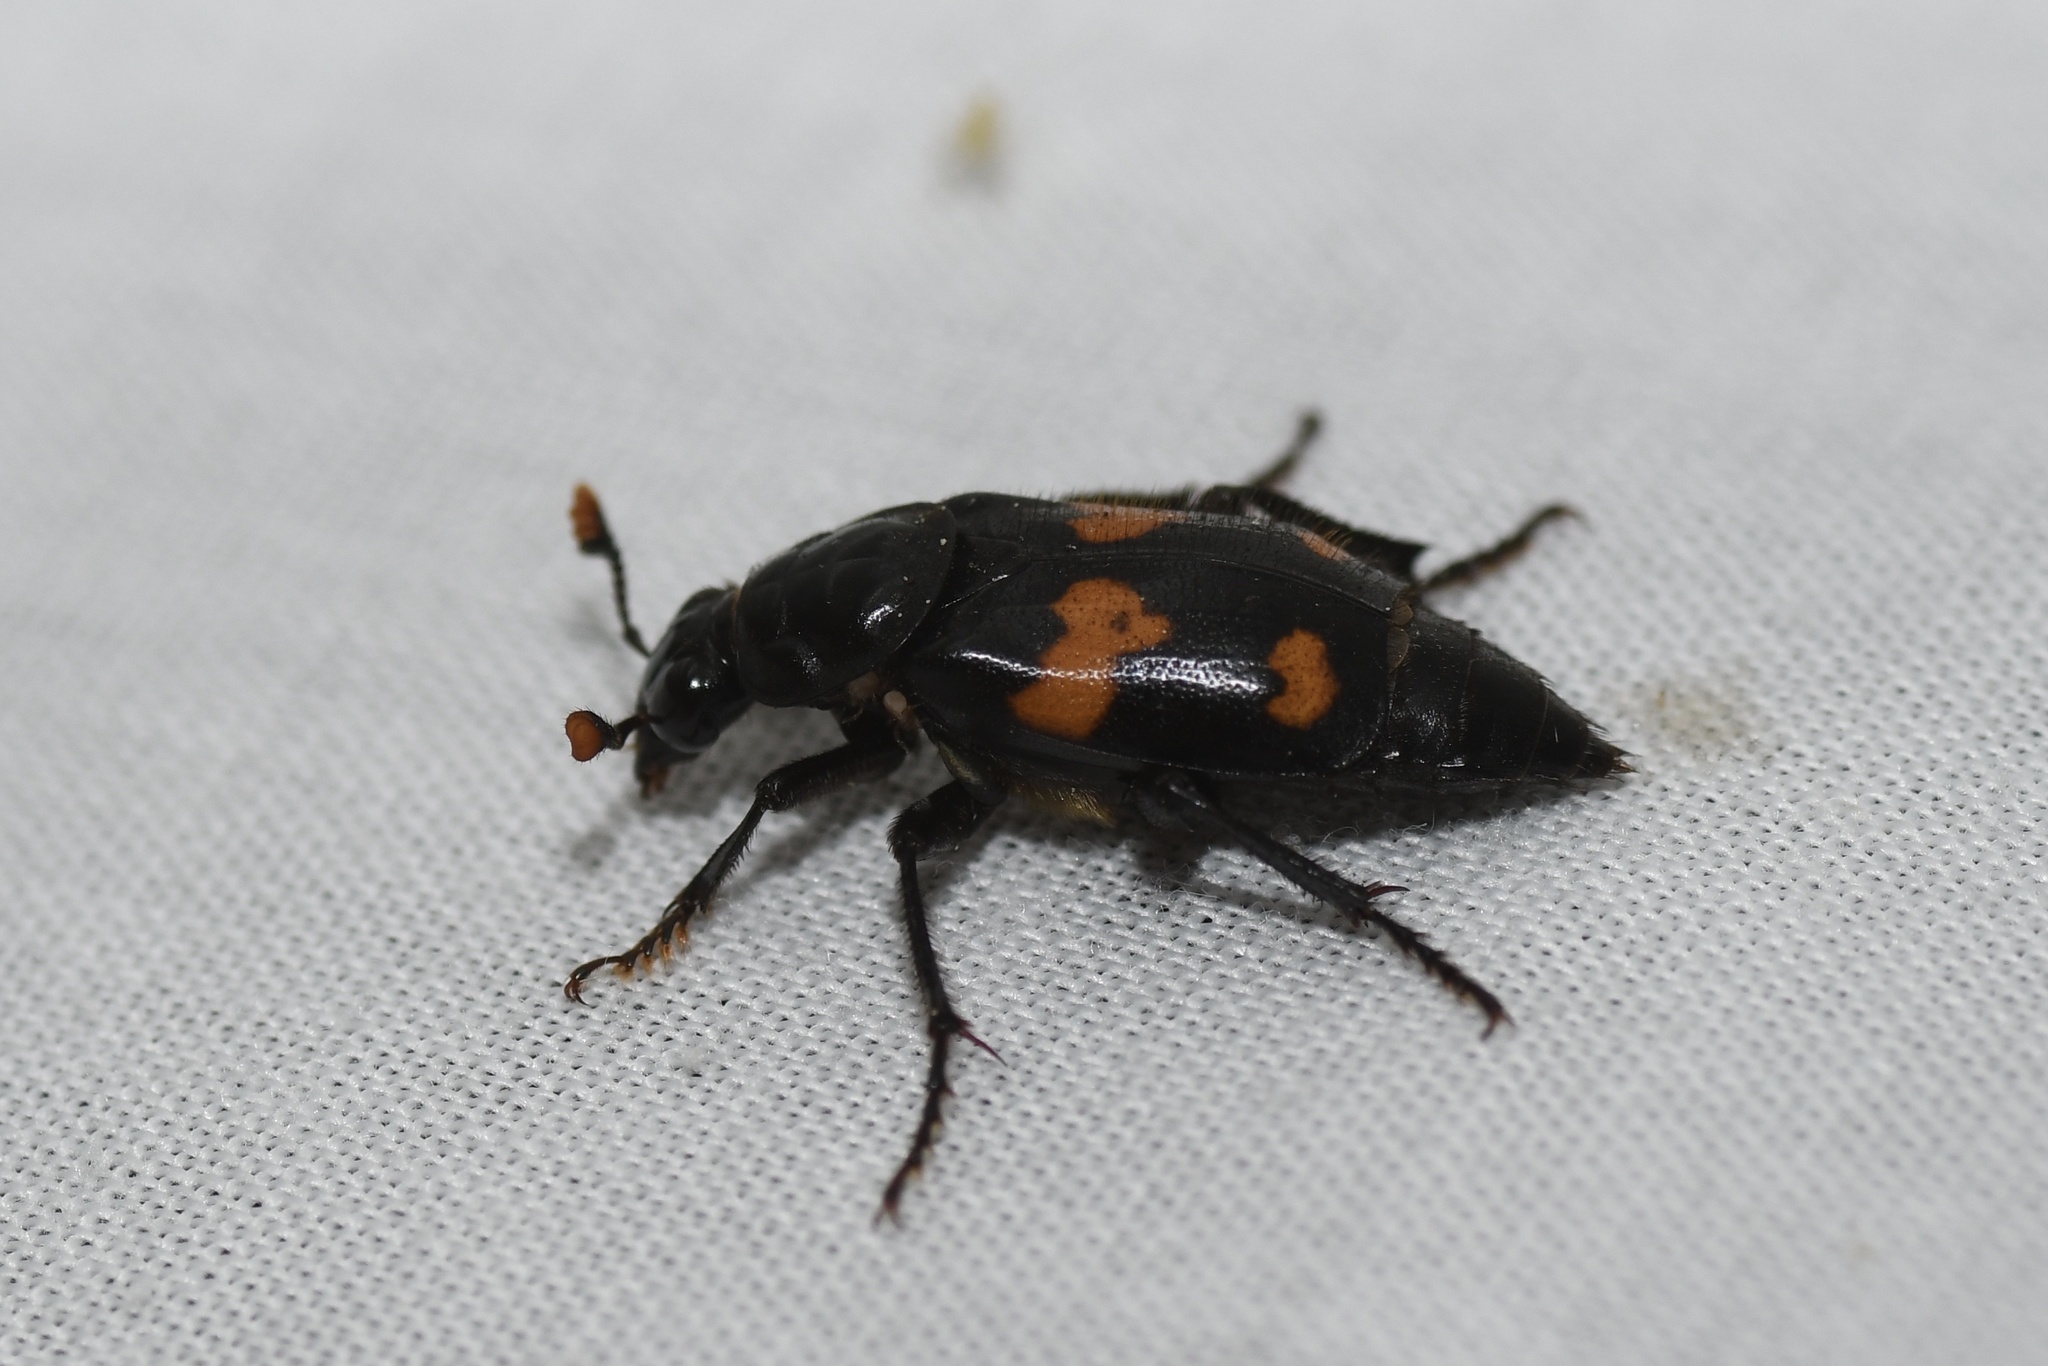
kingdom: Animalia
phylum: Arthropoda
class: Insecta
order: Coleoptera
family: Staphylinidae
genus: Nicrophorus
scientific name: Nicrophorus orbicollis
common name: Roundneck sexton beetle
